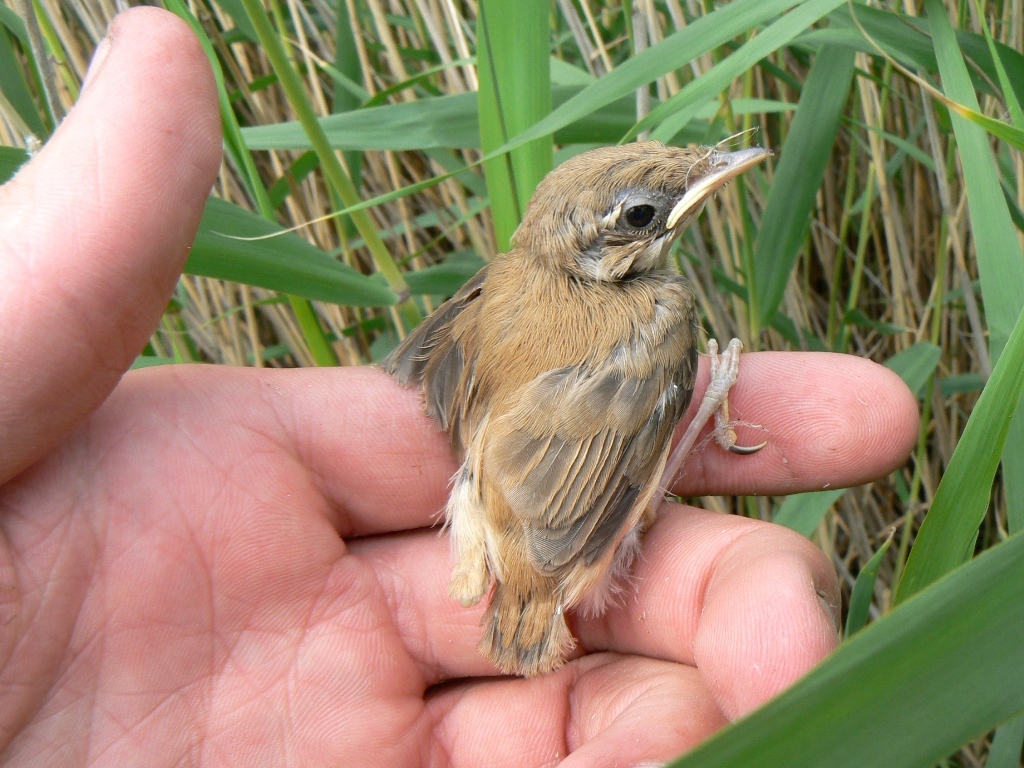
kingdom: Animalia
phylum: Chordata
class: Aves
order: Passeriformes
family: Acrocephalidae
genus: Acrocephalus
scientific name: Acrocephalus agricola
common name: Paddyfield warbler
